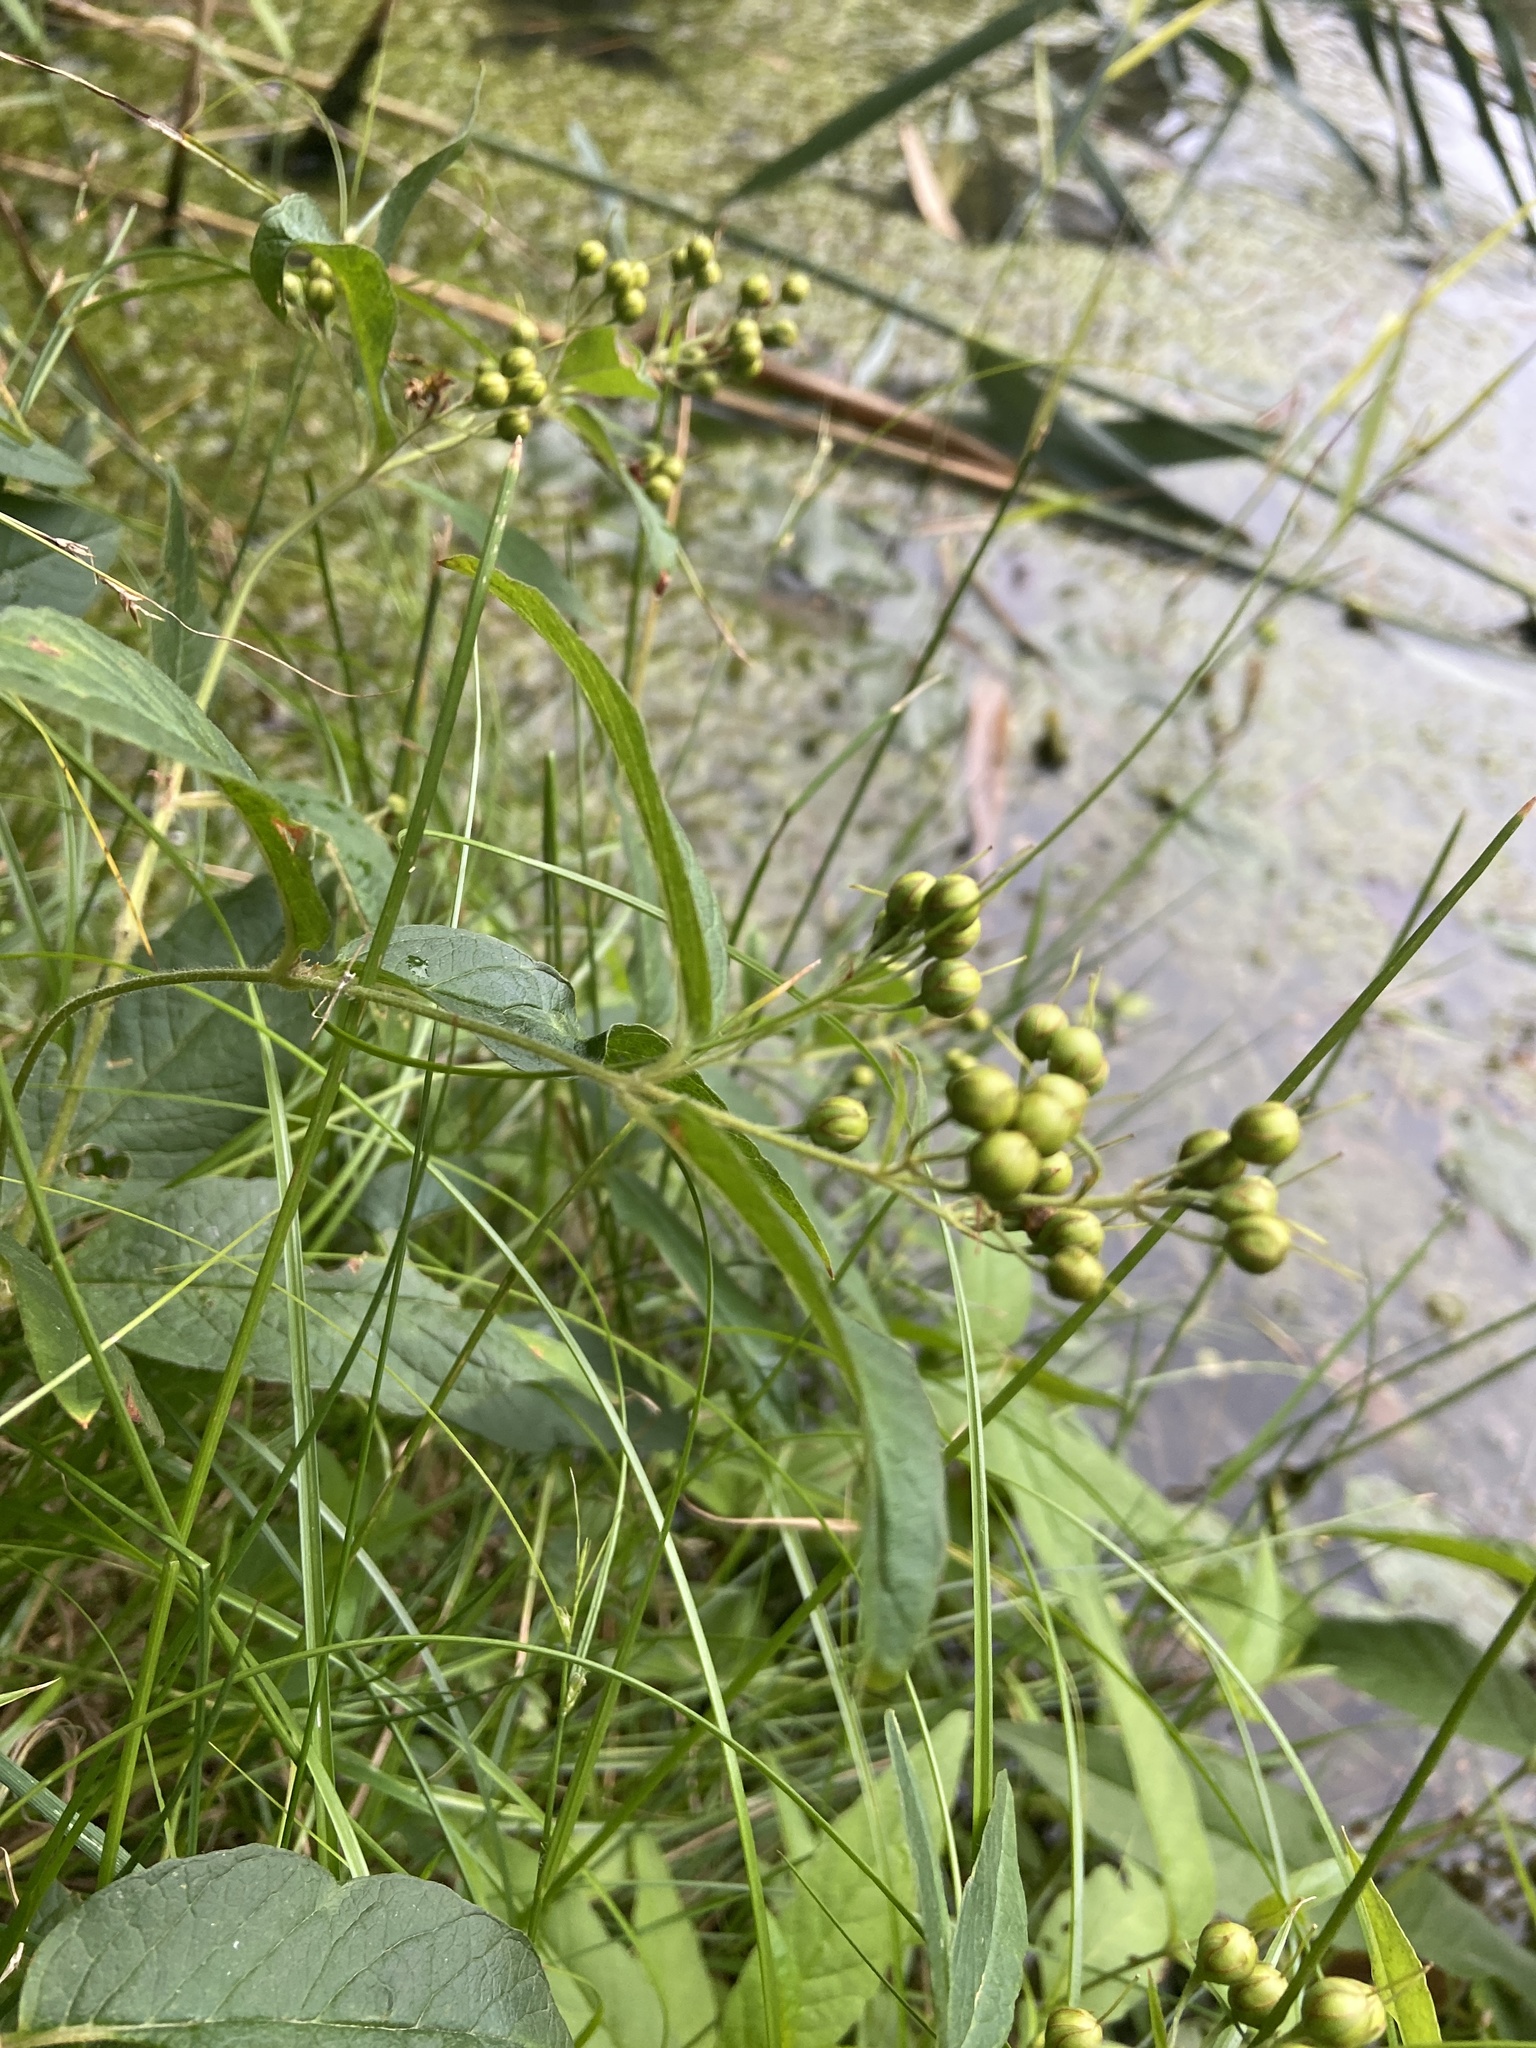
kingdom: Plantae
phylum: Tracheophyta
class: Magnoliopsida
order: Ericales
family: Primulaceae
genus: Lysimachia
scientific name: Lysimachia vulgaris
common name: Yellow loosestrife
